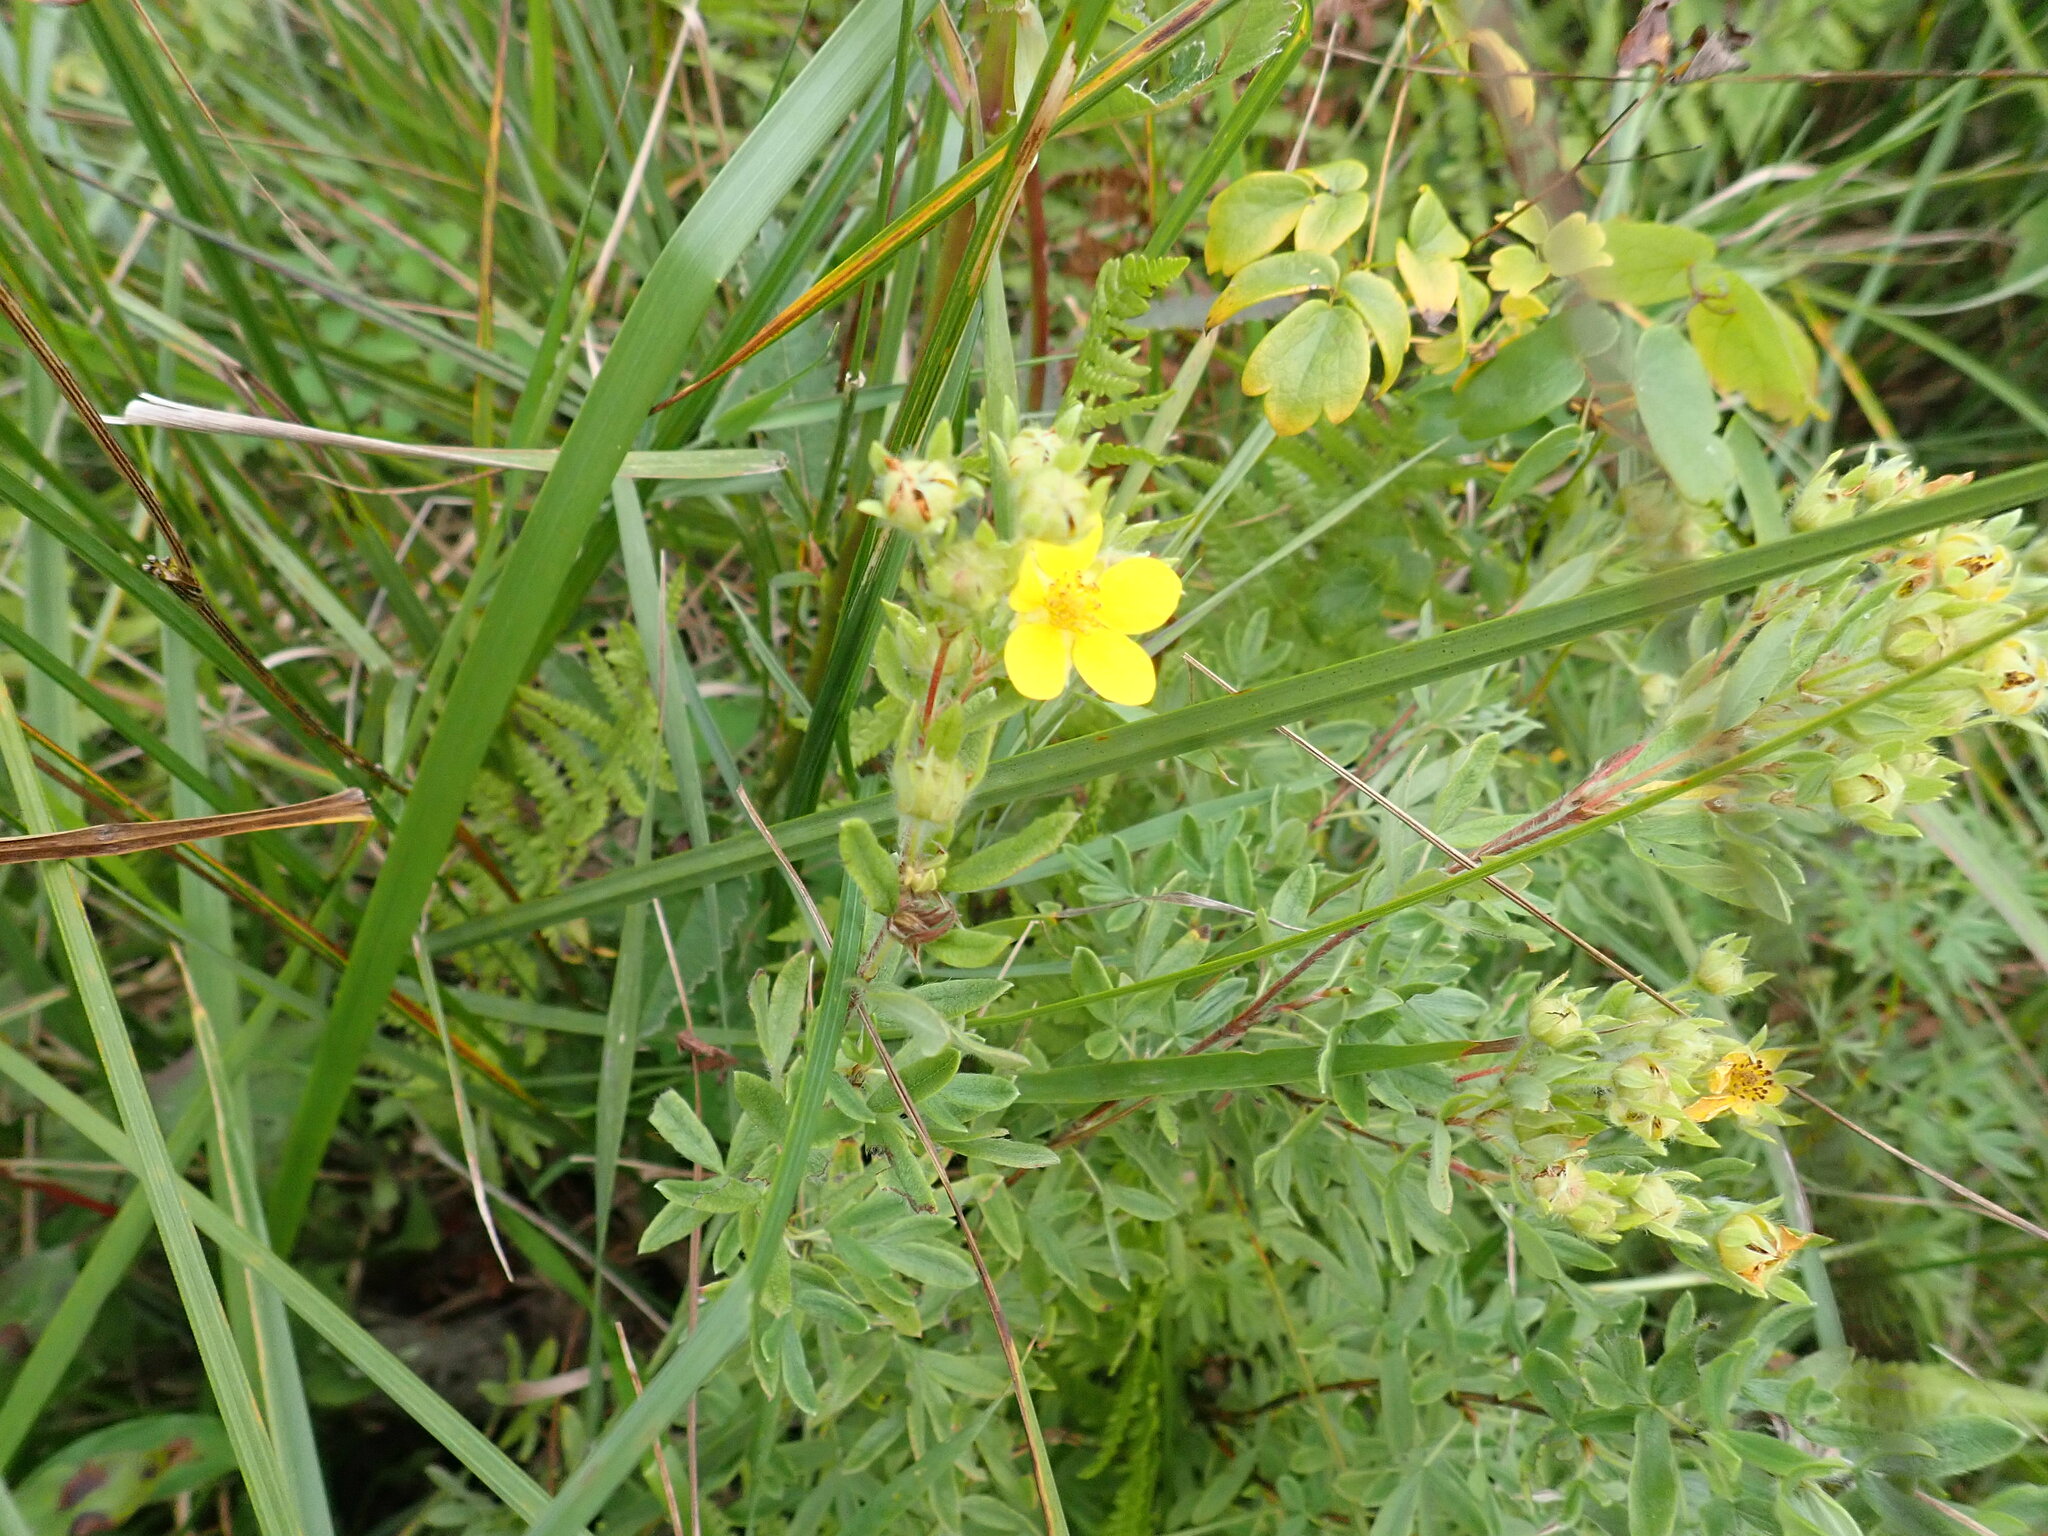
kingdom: Plantae
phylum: Tracheophyta
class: Magnoliopsida
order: Rosales
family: Rosaceae
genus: Dasiphora
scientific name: Dasiphora fruticosa
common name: Shrubby cinquefoil
